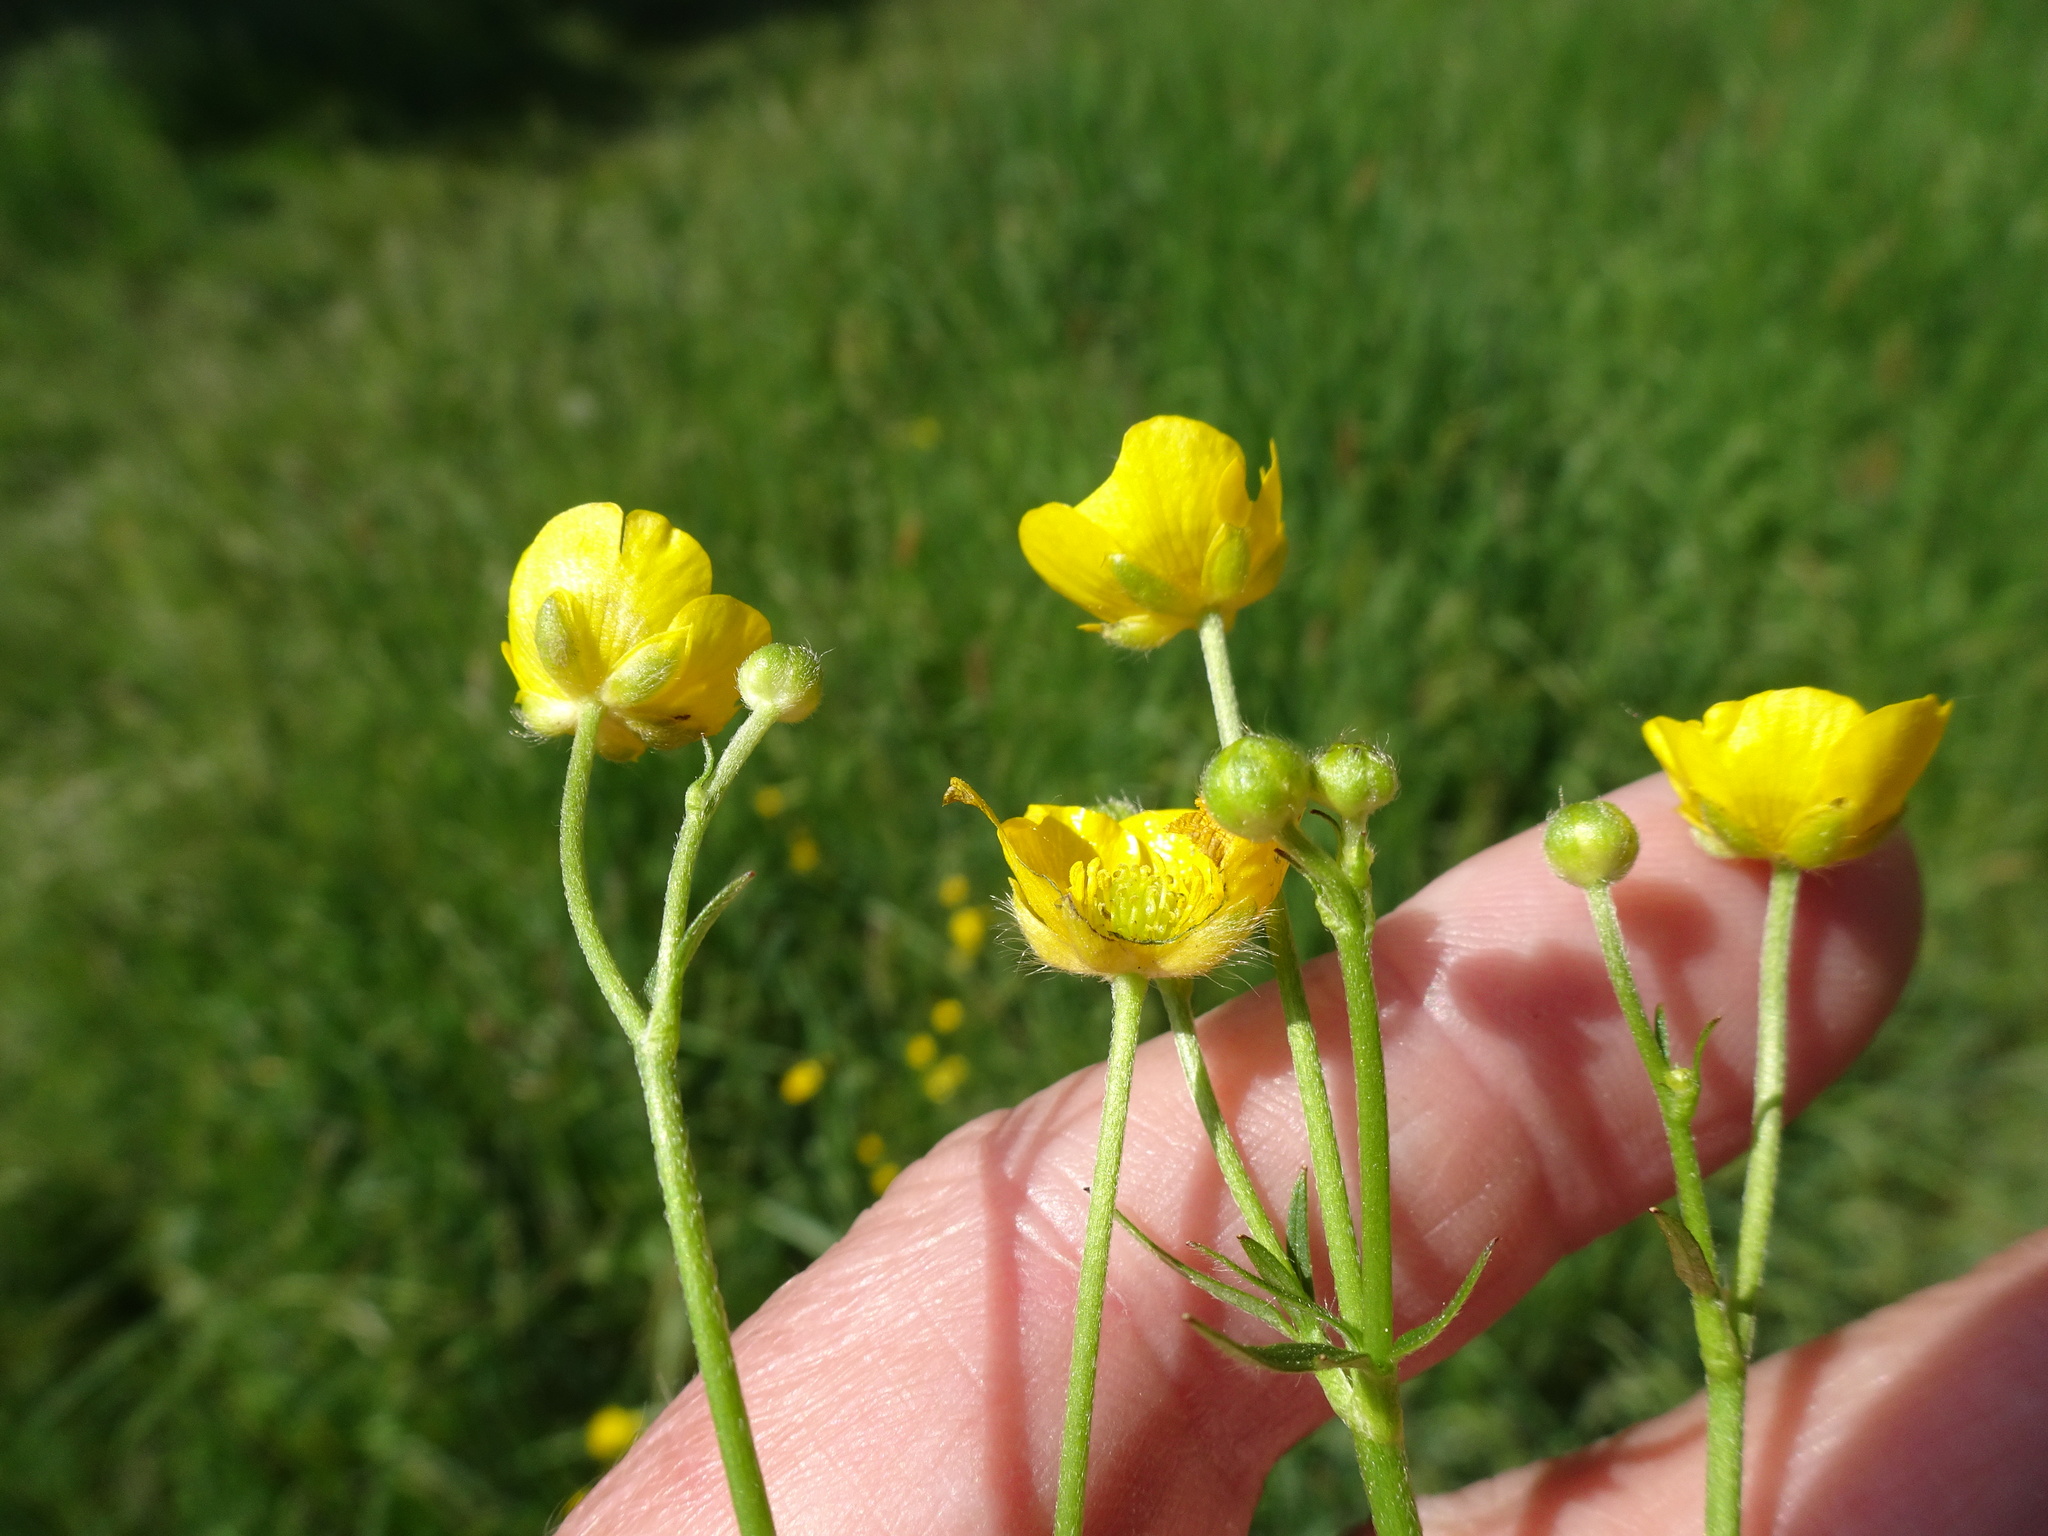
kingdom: Plantae
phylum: Tracheophyta
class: Magnoliopsida
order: Ranunculales
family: Ranunculaceae
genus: Ranunculus
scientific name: Ranunculus acris
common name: Meadow buttercup
